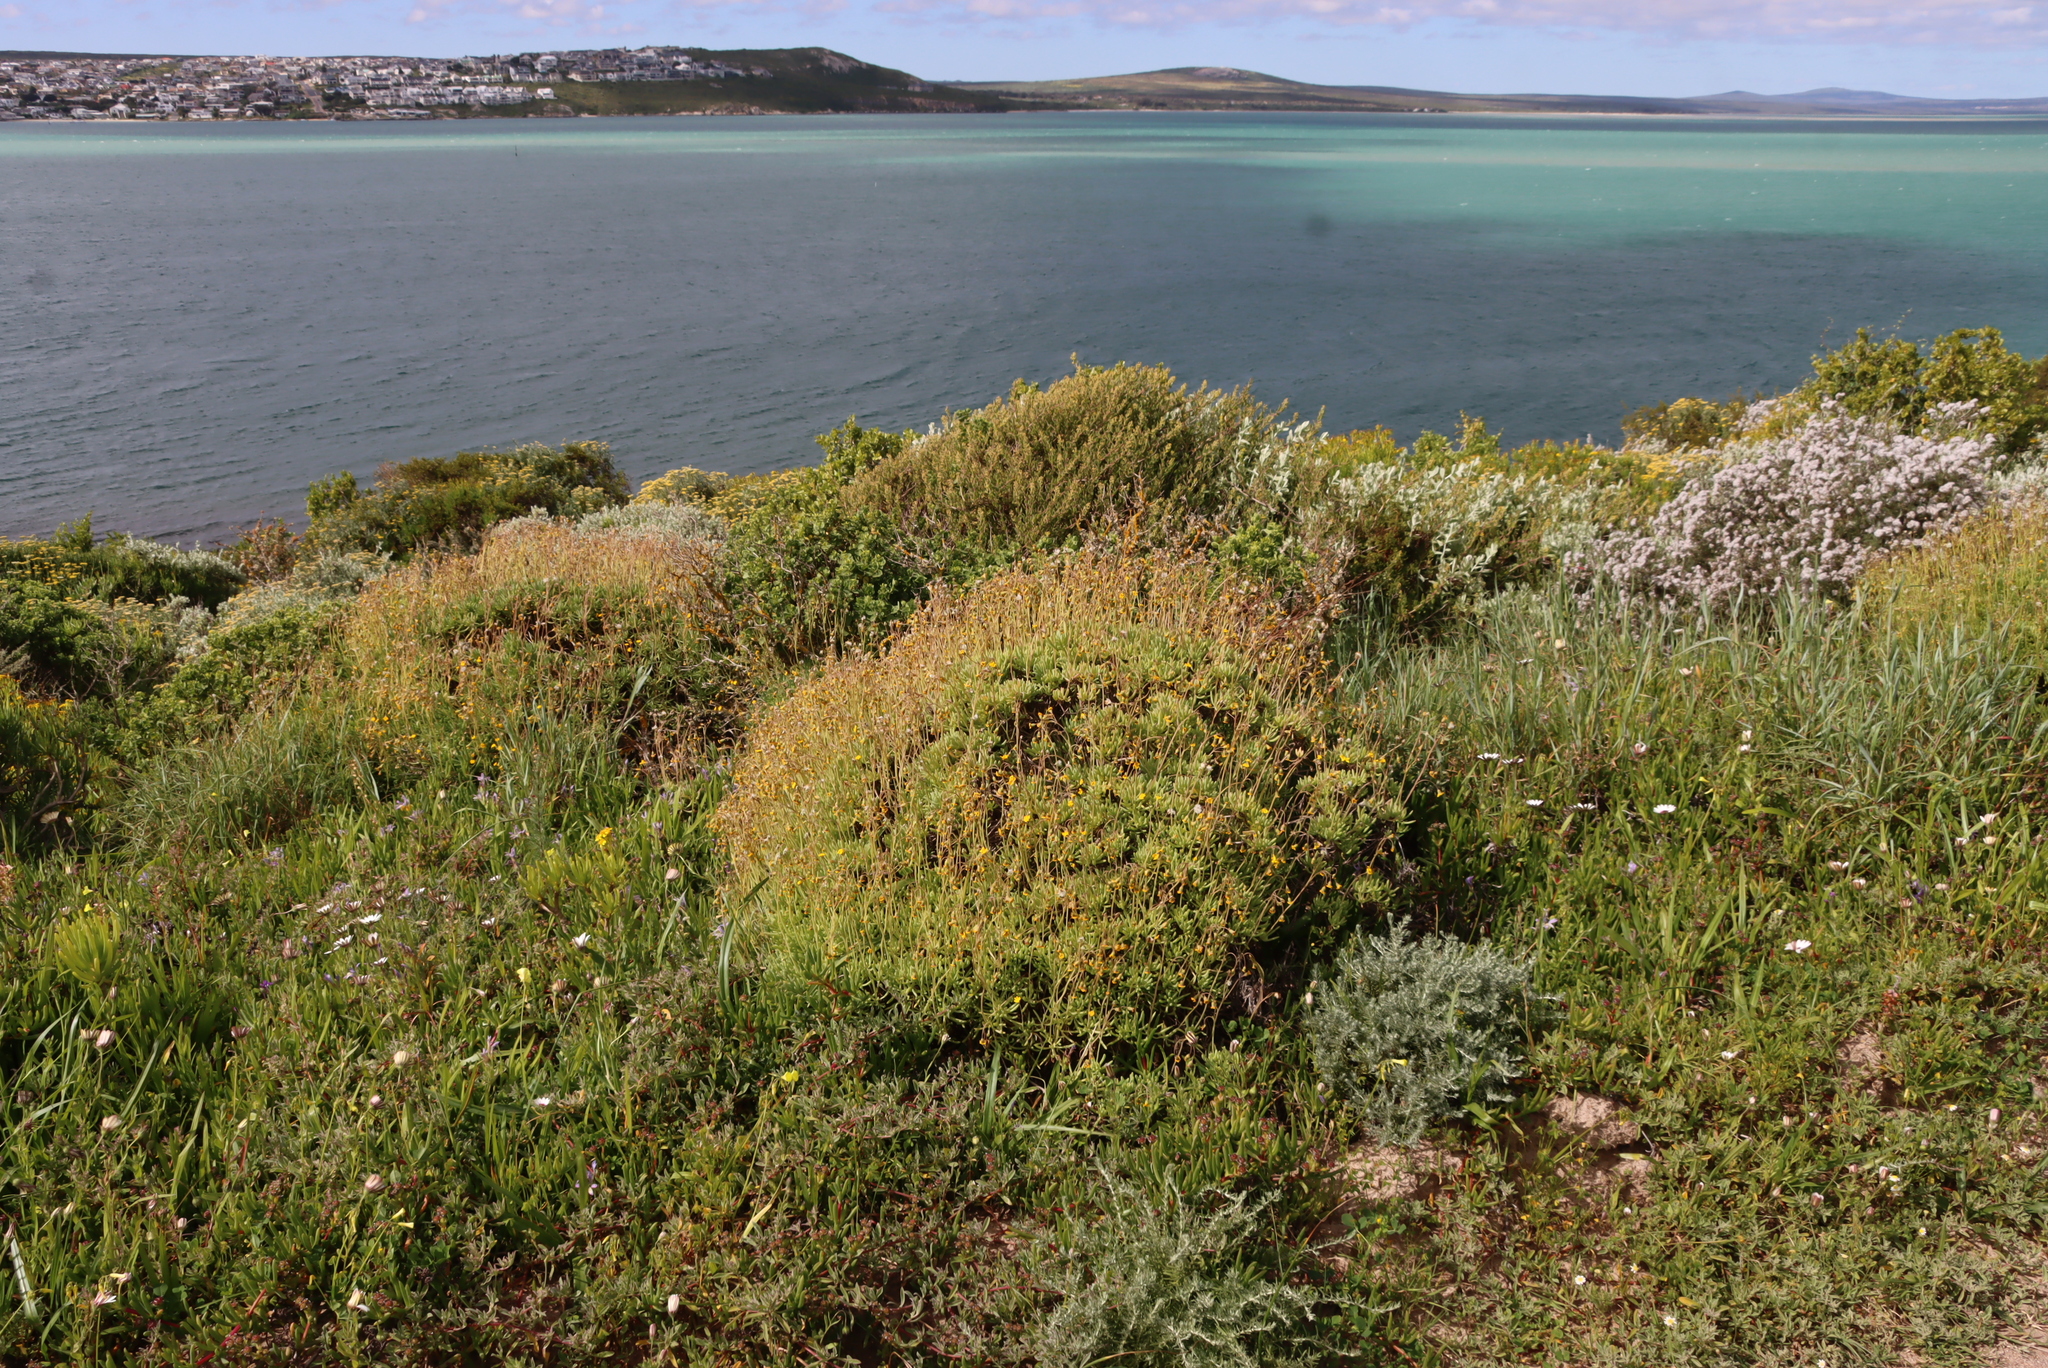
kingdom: Plantae
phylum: Tracheophyta
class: Magnoliopsida
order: Asterales
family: Asteraceae
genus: Crassothonna
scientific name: Crassothonna cylindrica
